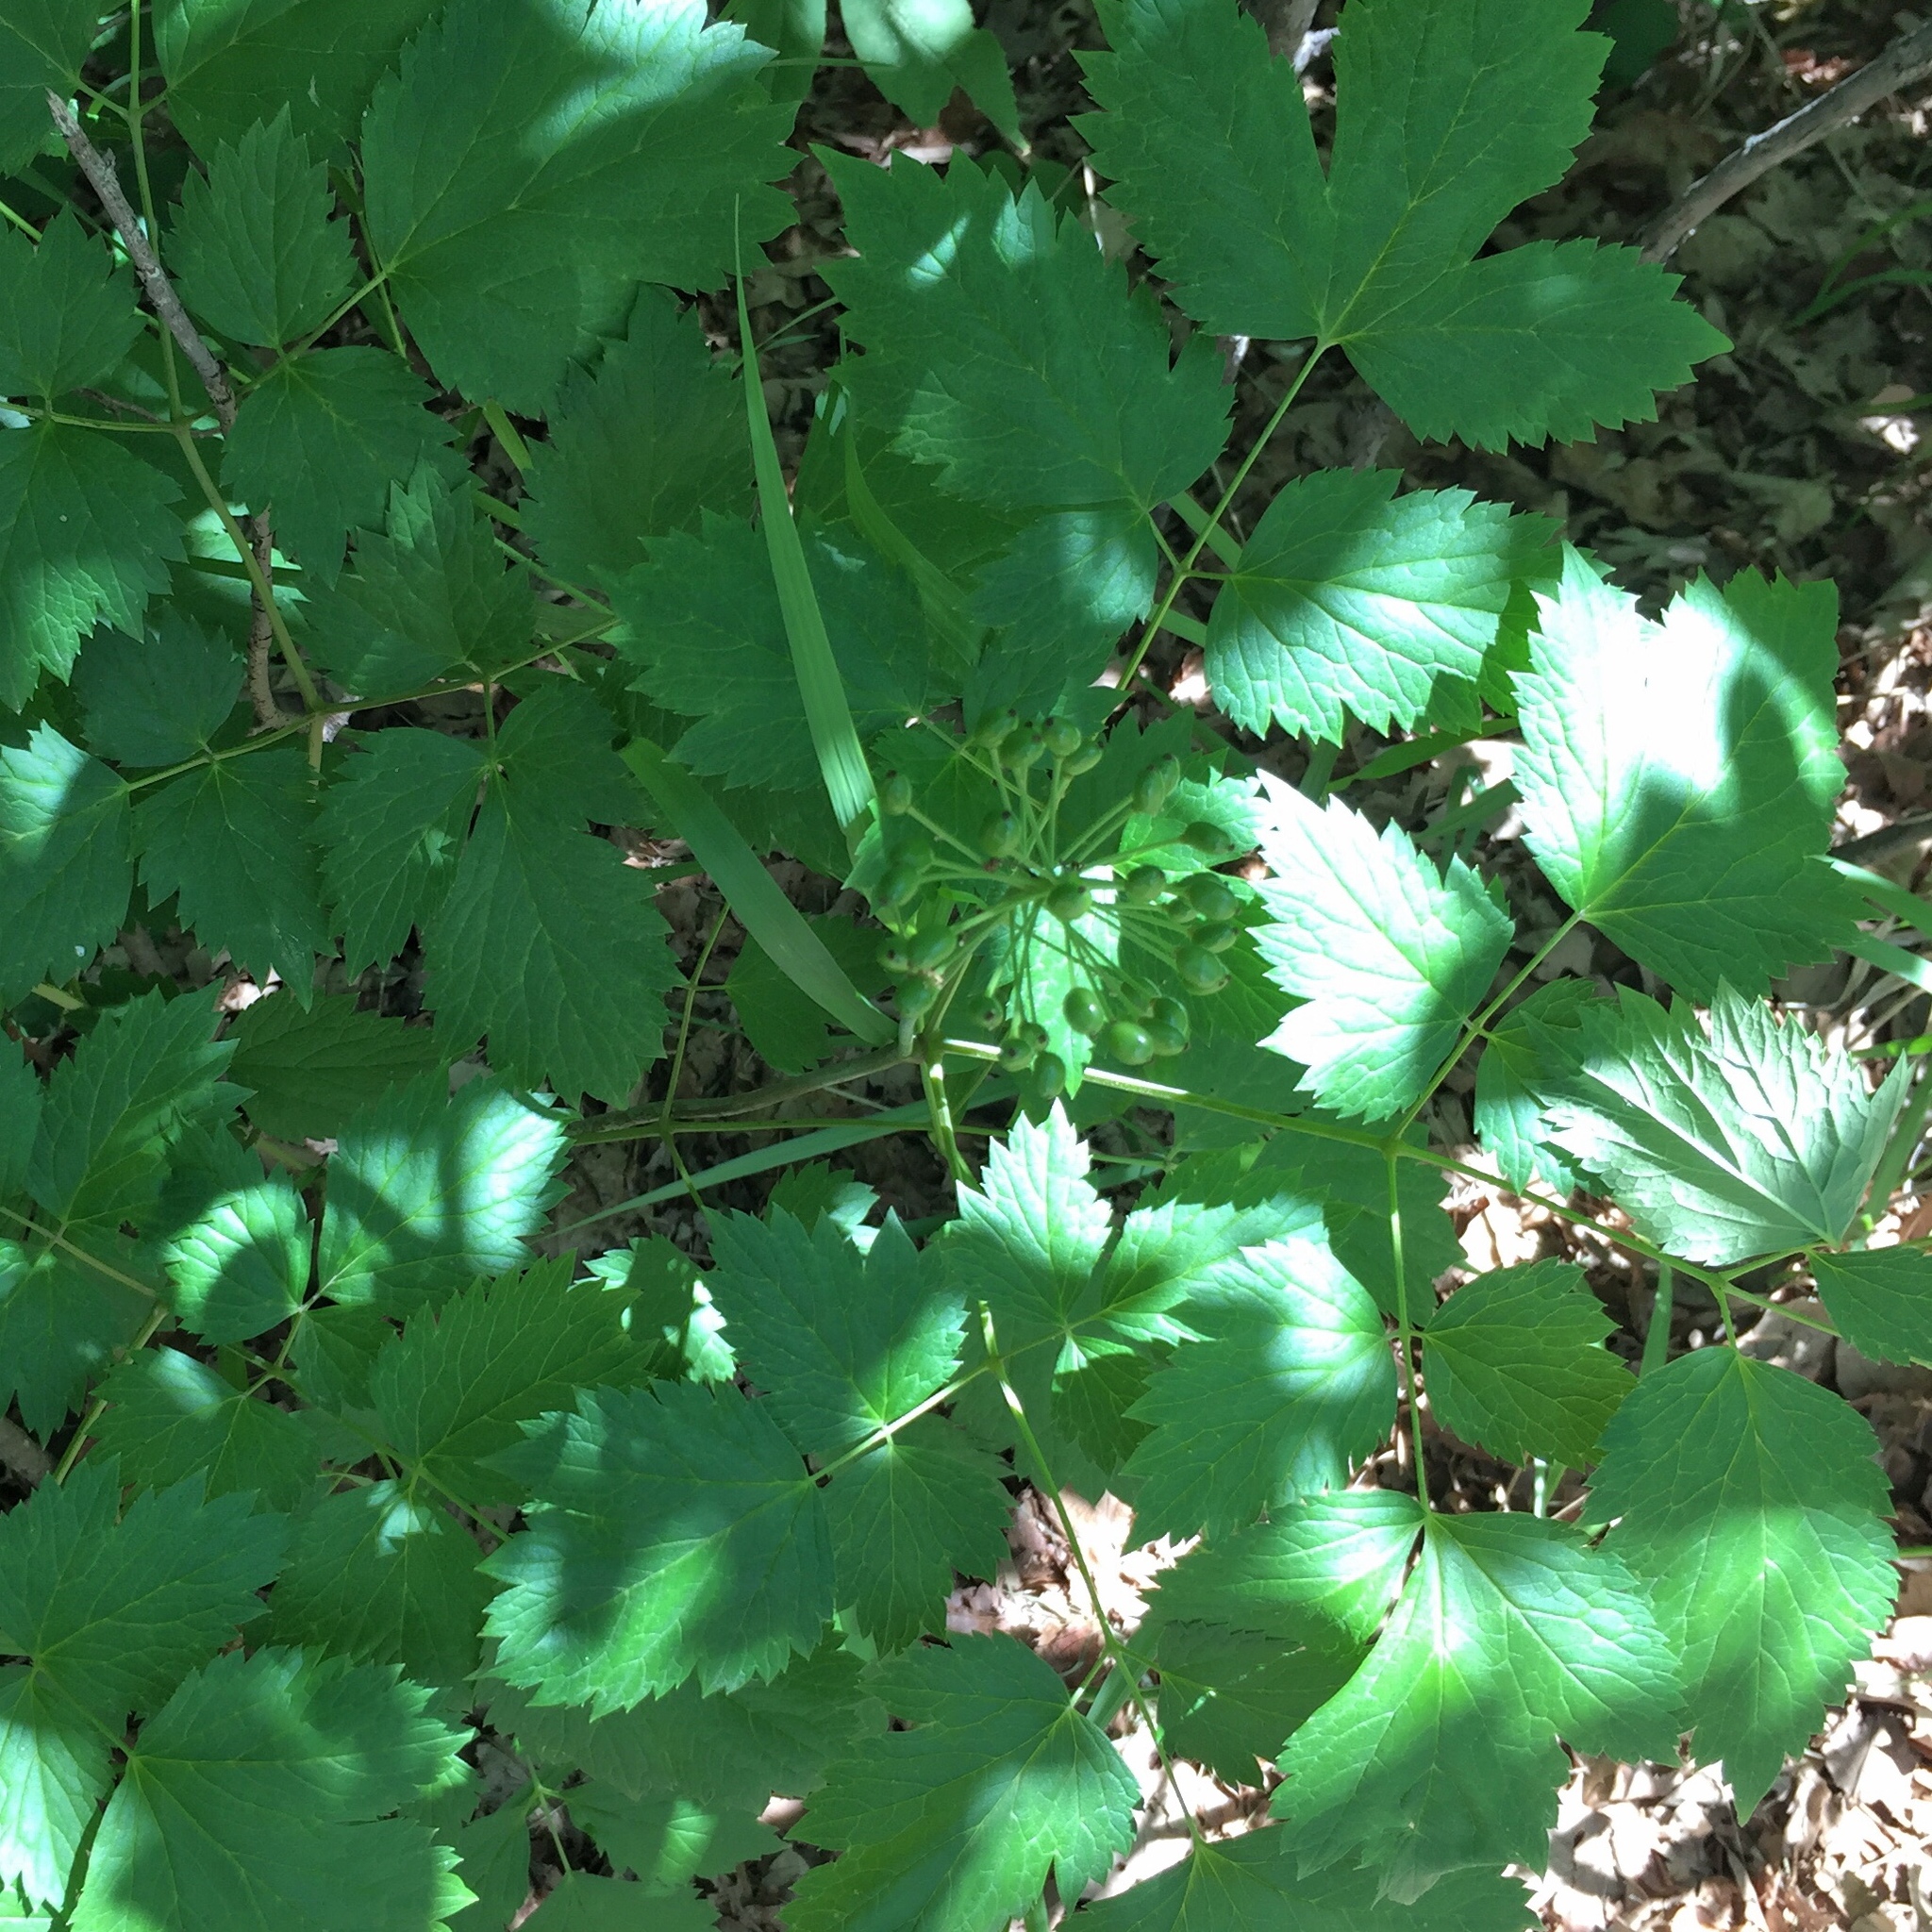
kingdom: Plantae
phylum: Tracheophyta
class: Magnoliopsida
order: Ranunculales
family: Ranunculaceae
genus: Actaea
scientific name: Actaea rubra
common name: Red baneberry
